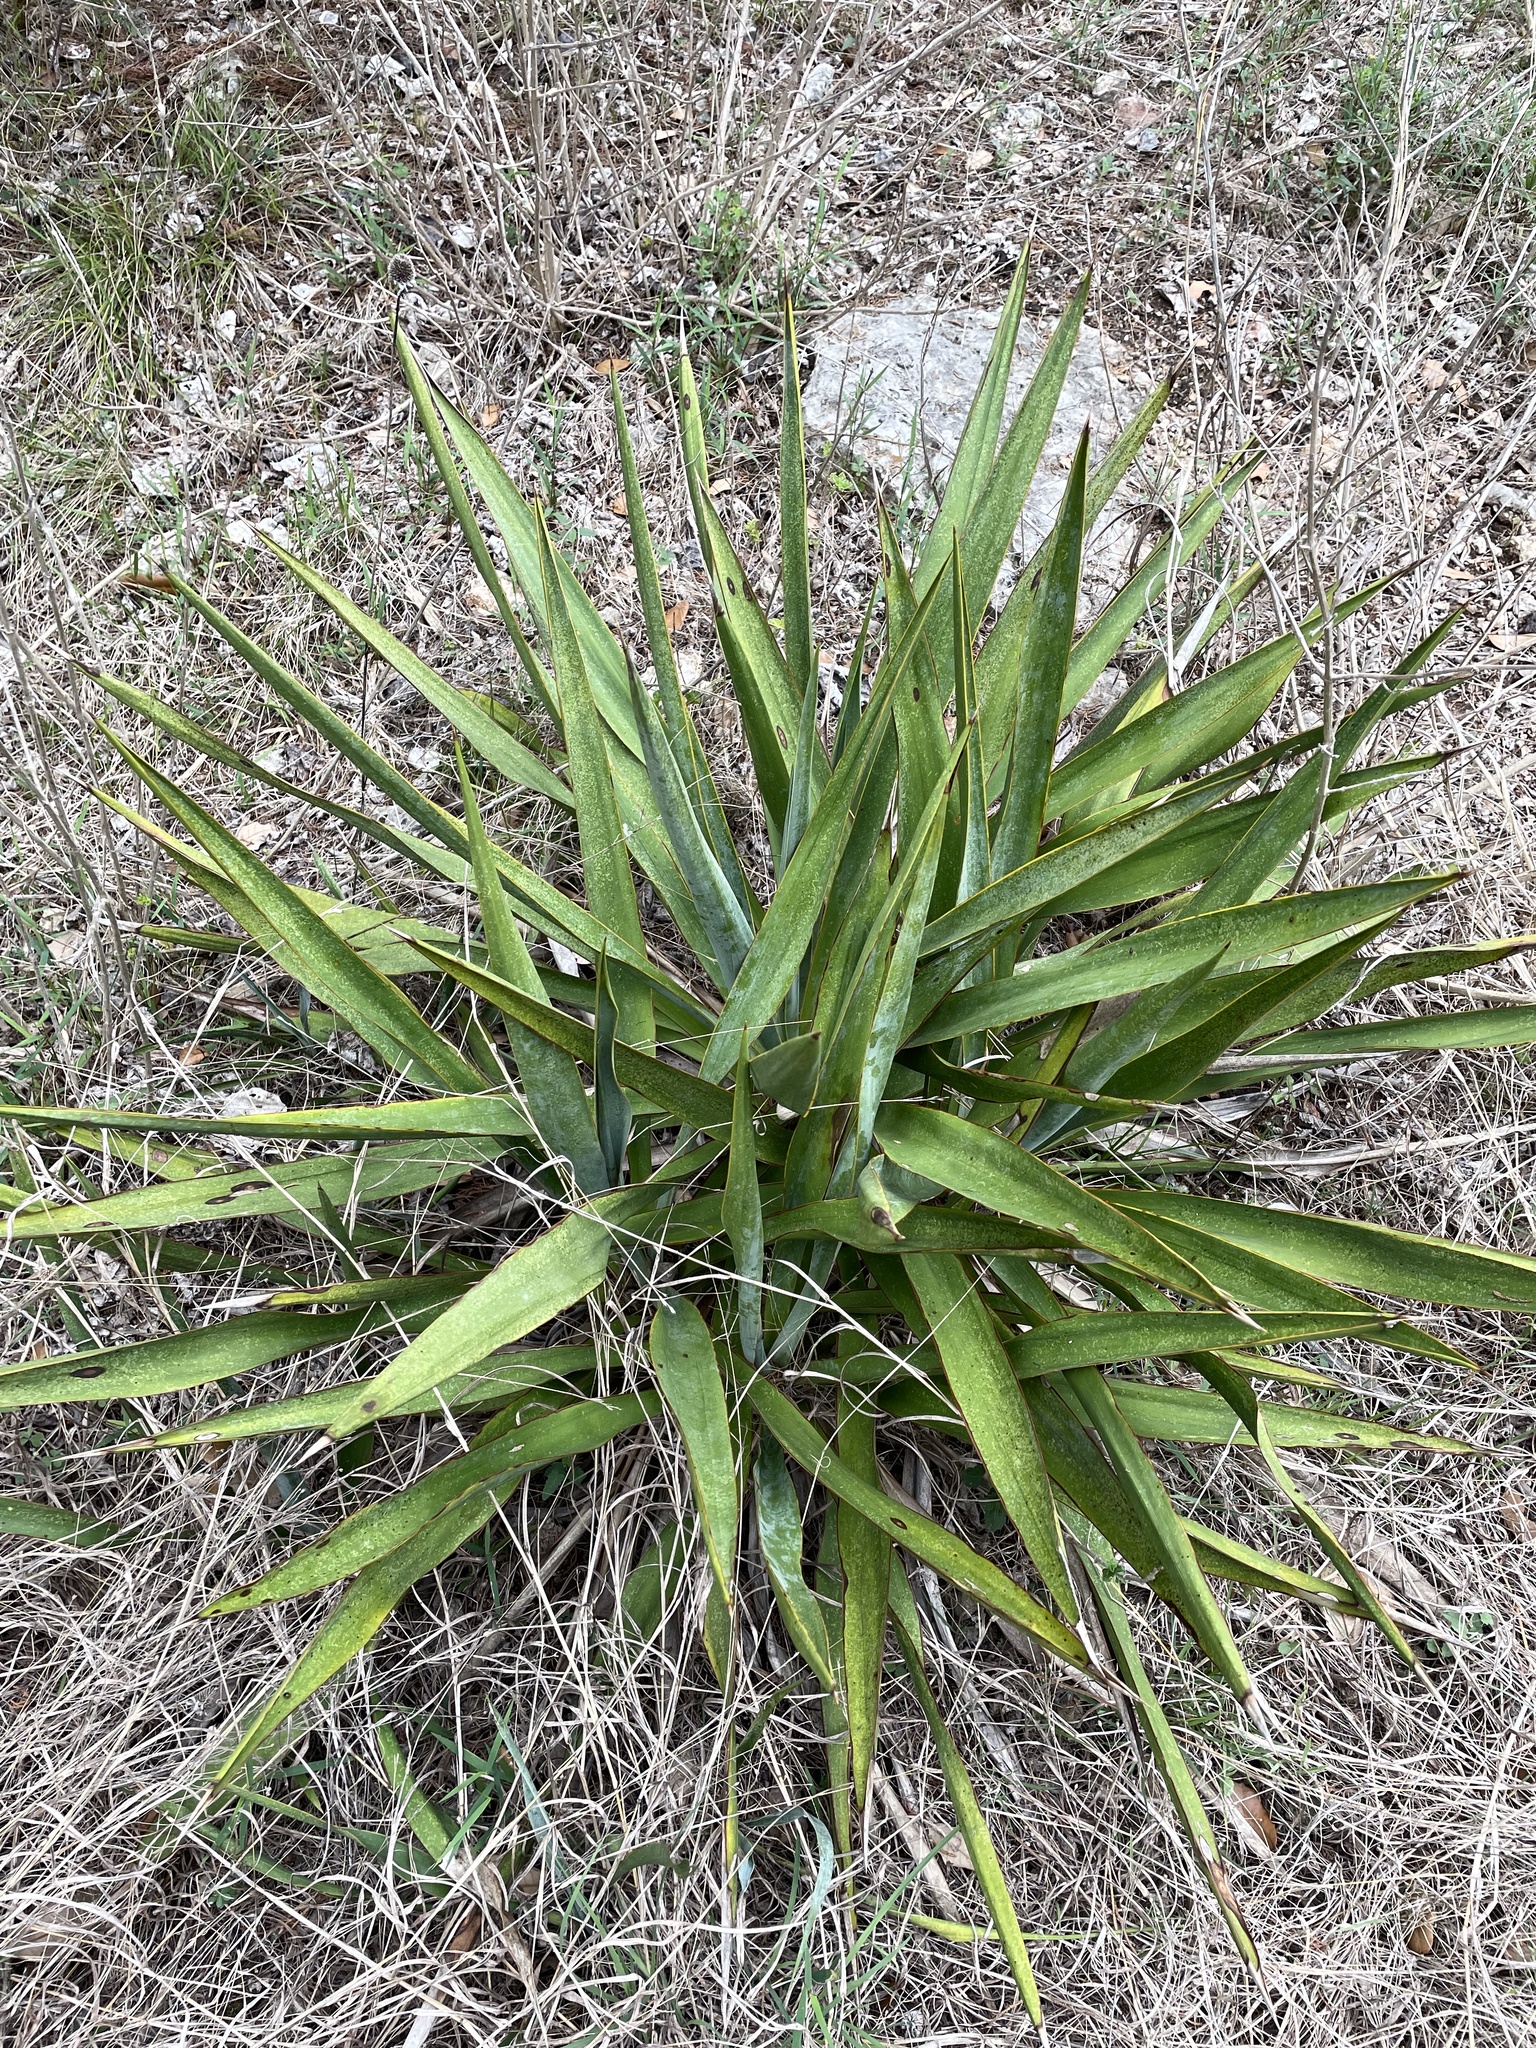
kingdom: Plantae
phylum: Tracheophyta
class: Liliopsida
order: Asparagales
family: Asparagaceae
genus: Yucca
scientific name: Yucca rupicola
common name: Twisted-leaf spanish-dagger
